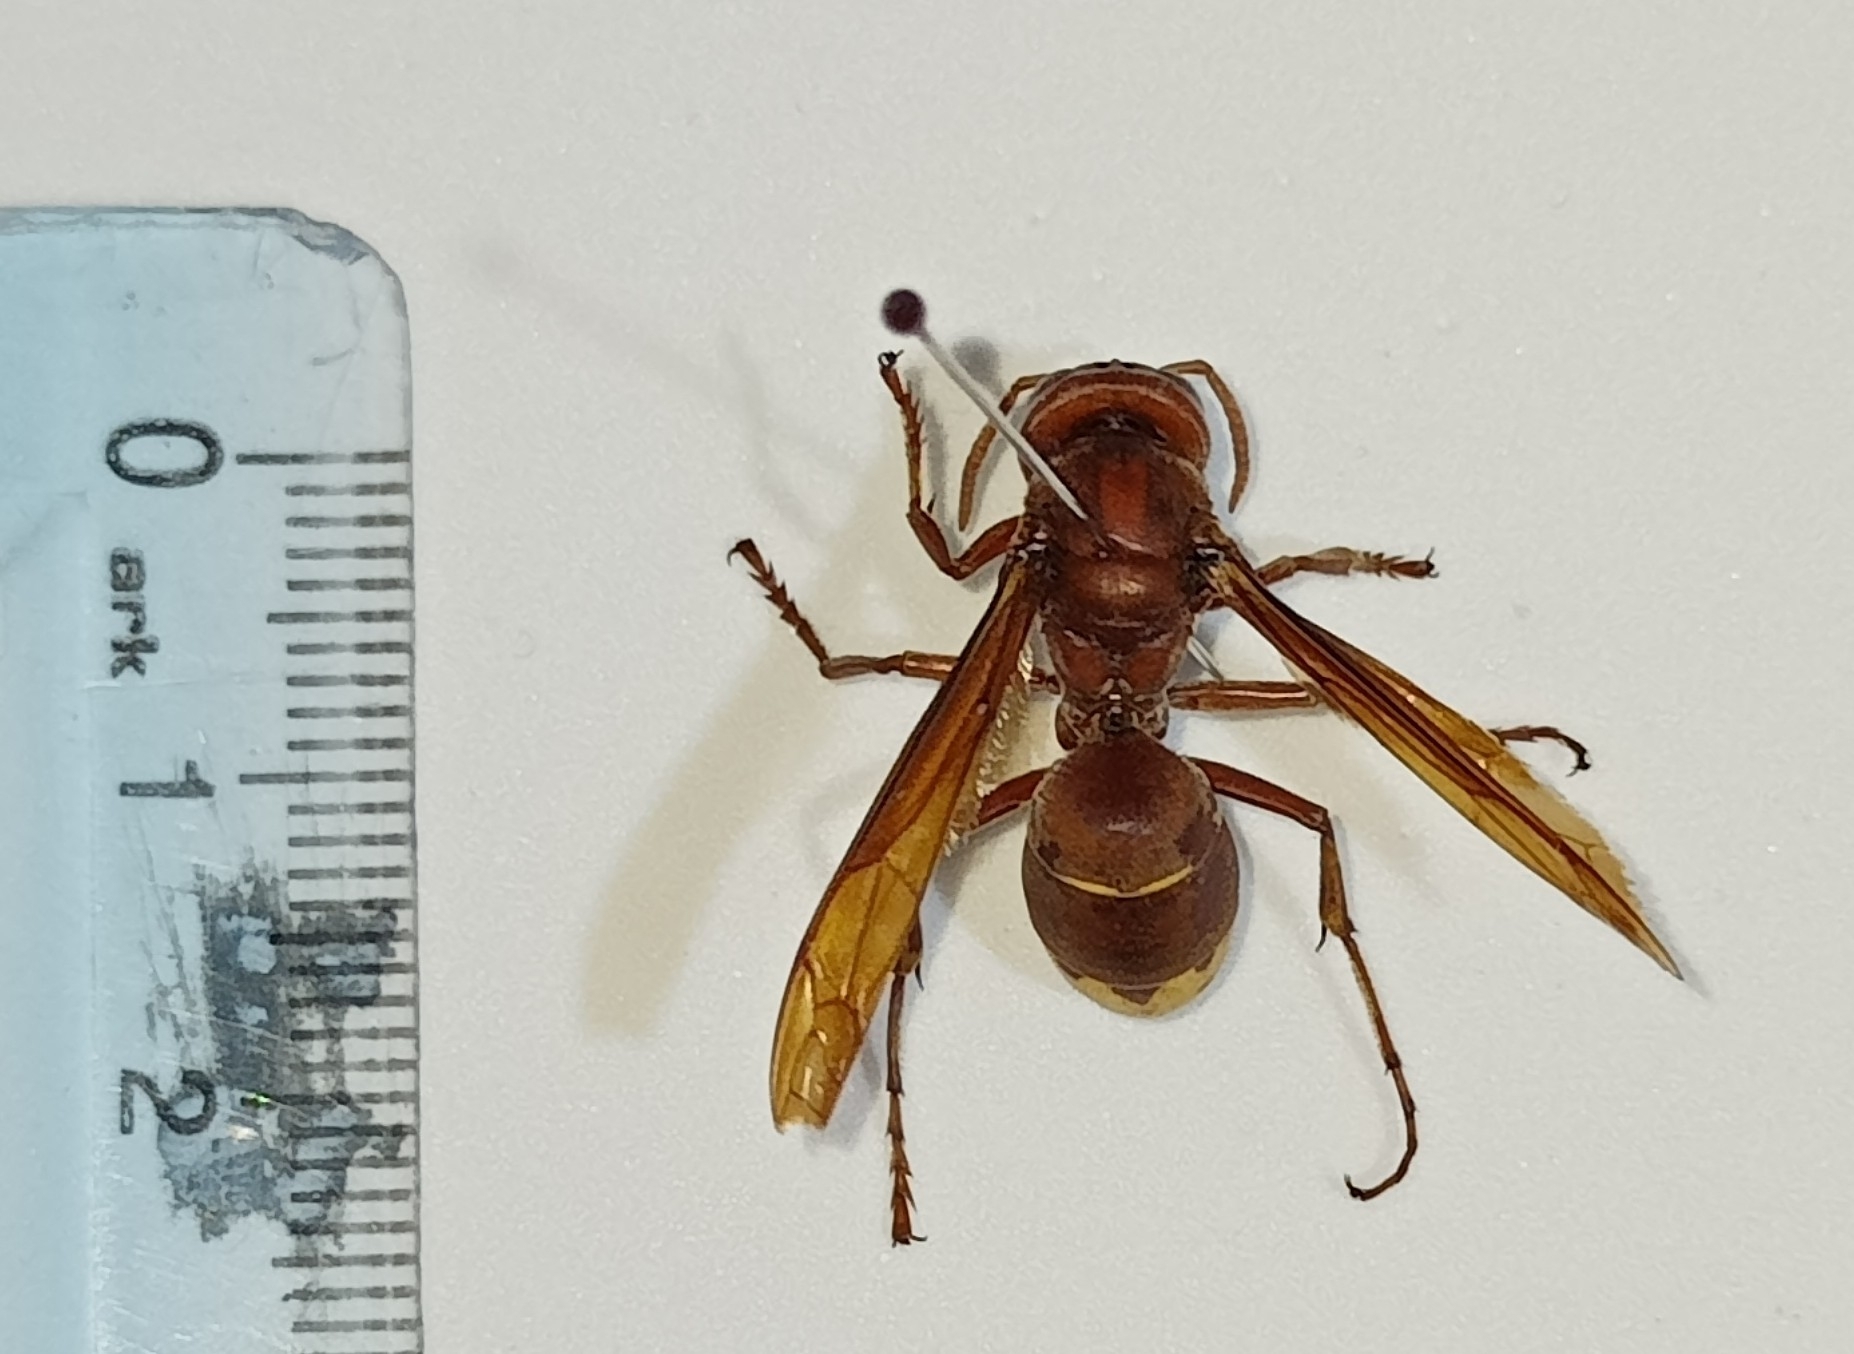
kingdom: Animalia
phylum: Arthropoda
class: Insecta
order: Hymenoptera
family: Vespidae
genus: Vespa
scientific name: Vespa orientalis
